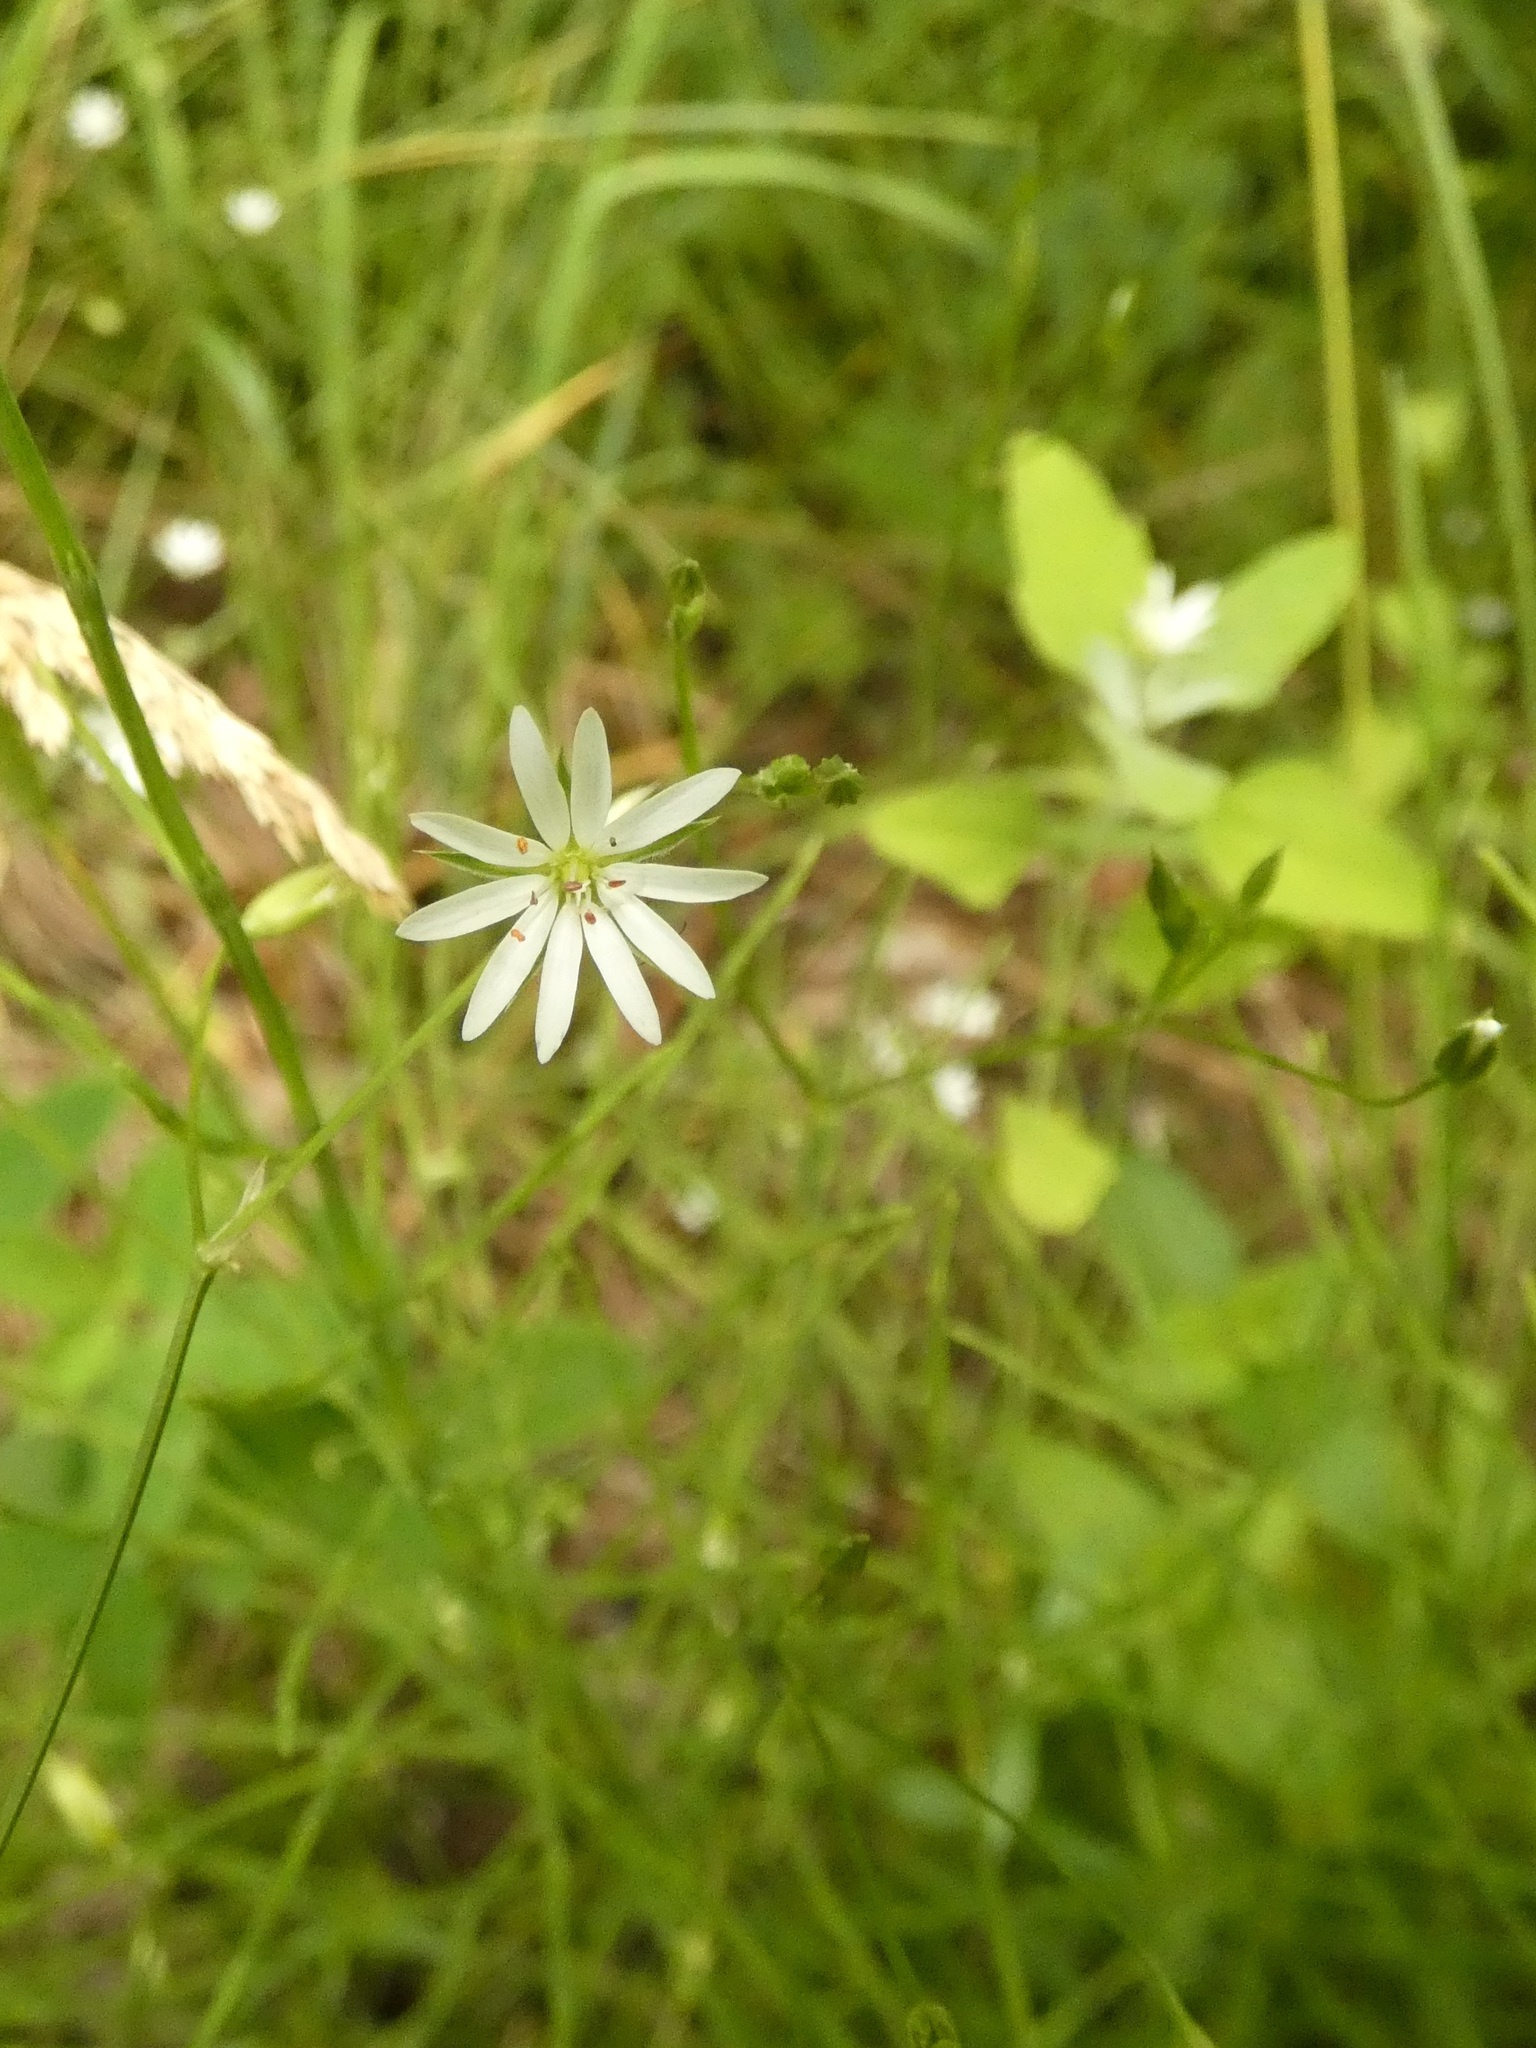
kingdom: Plantae
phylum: Tracheophyta
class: Magnoliopsida
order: Caryophyllales
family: Caryophyllaceae
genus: Stellaria
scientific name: Stellaria graminea
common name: Grass-like starwort
